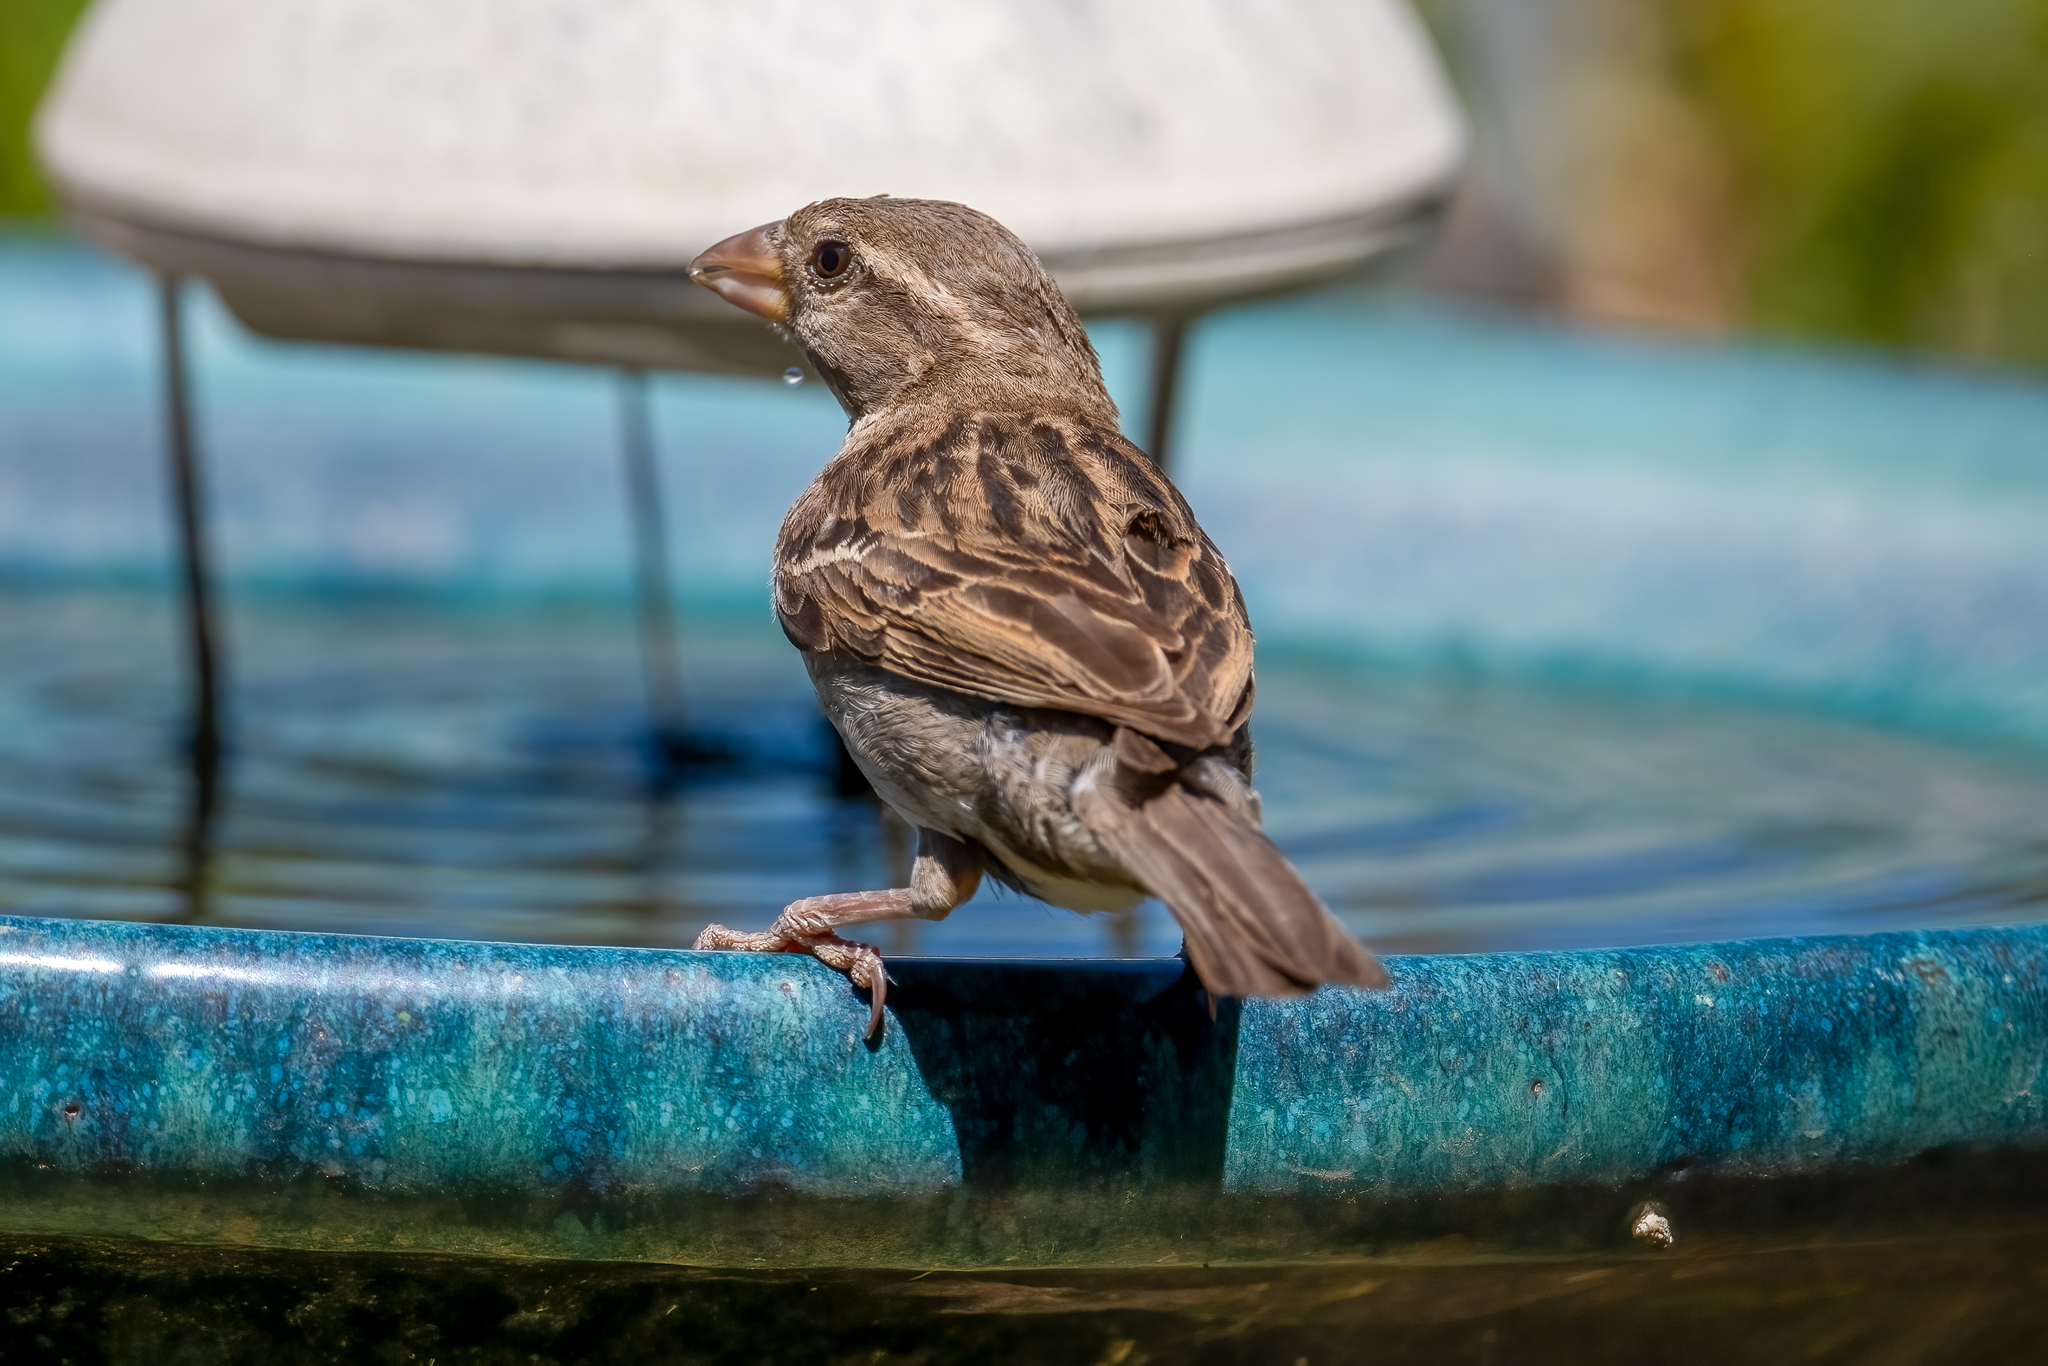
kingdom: Animalia
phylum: Chordata
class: Aves
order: Passeriformes
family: Passeridae
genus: Passer
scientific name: Passer domesticus
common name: House sparrow
